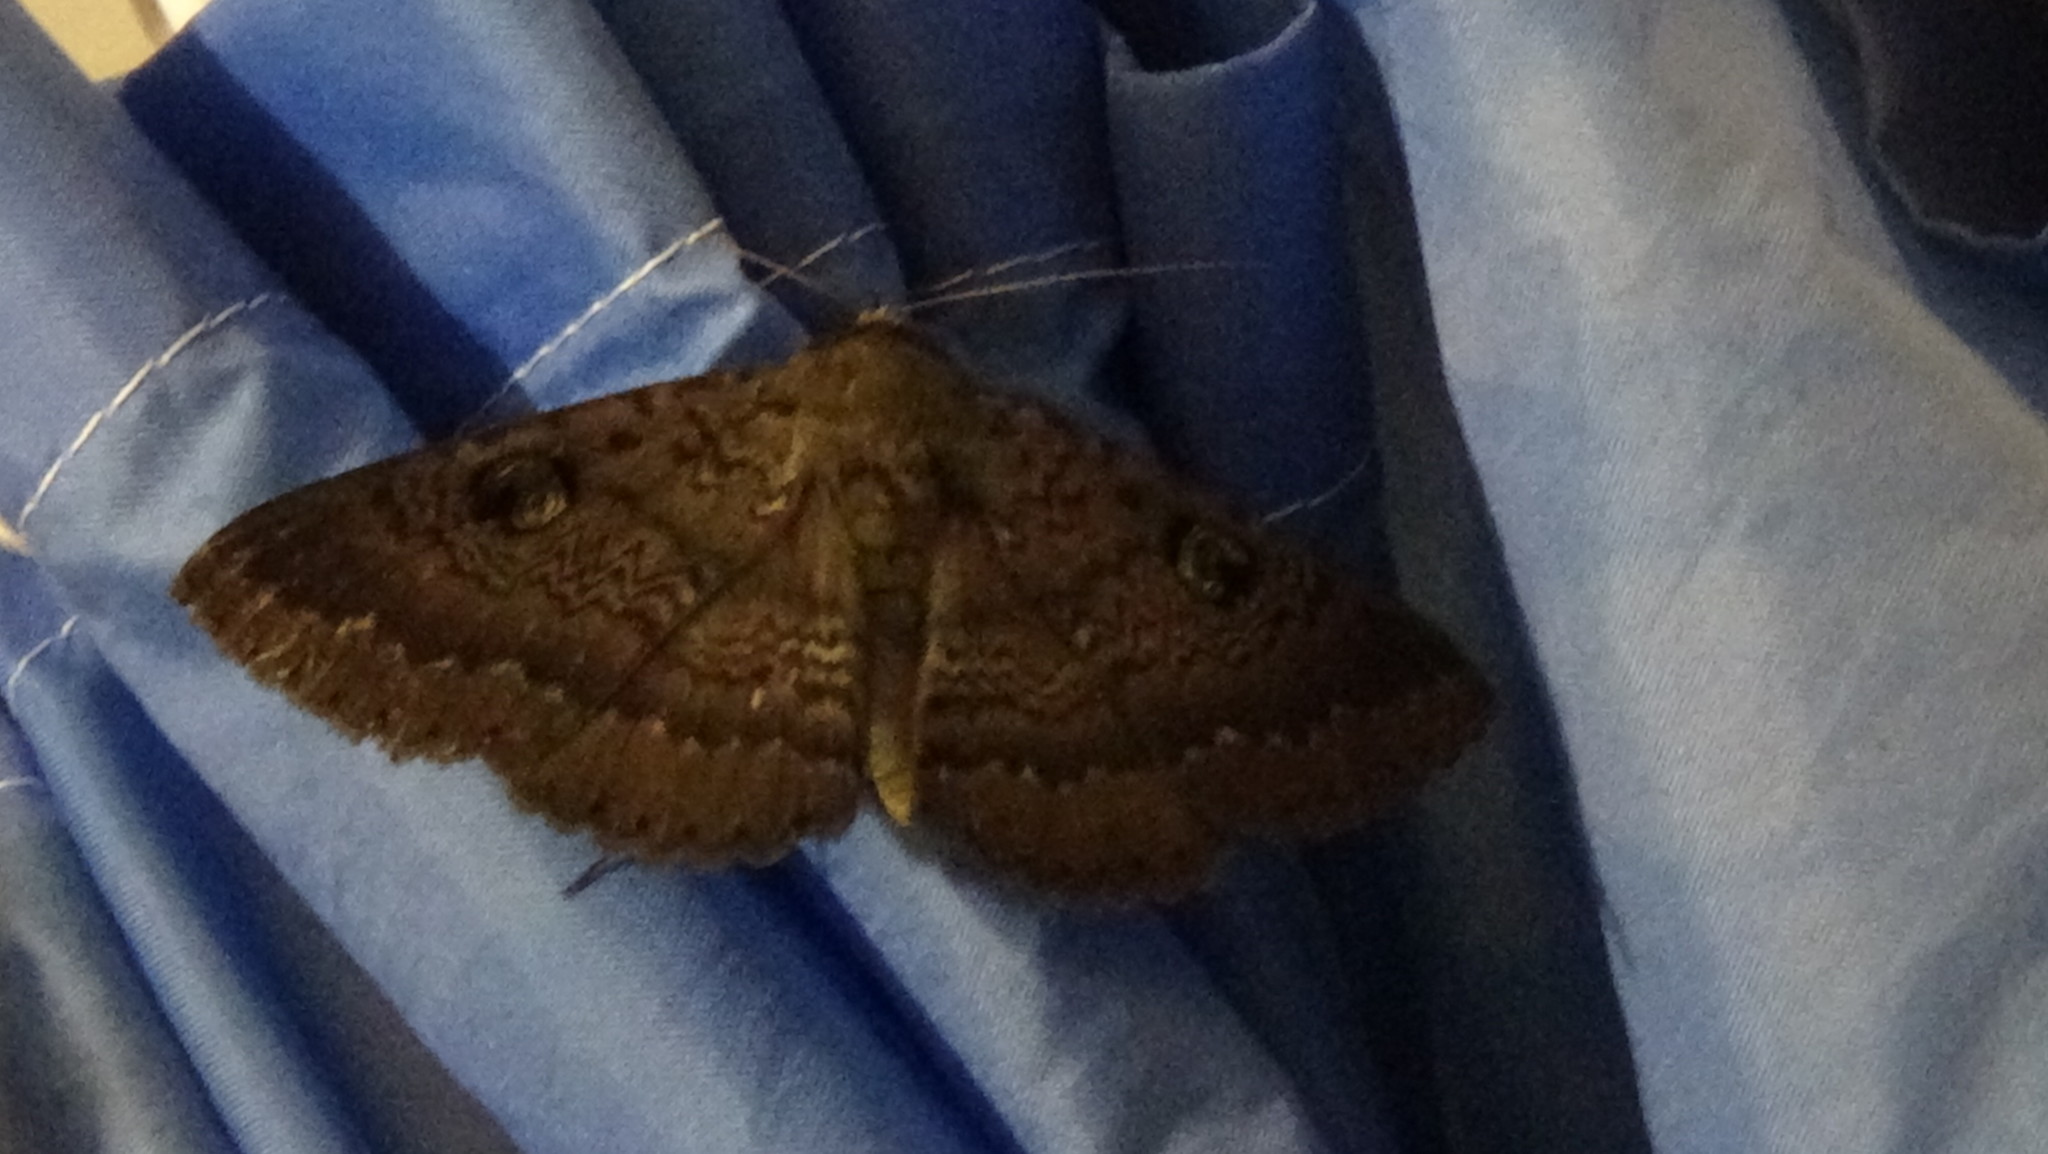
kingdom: Animalia
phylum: Arthropoda
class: Insecta
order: Lepidoptera
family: Erebidae
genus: Dasypodia
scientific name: Dasypodia cymatodes
